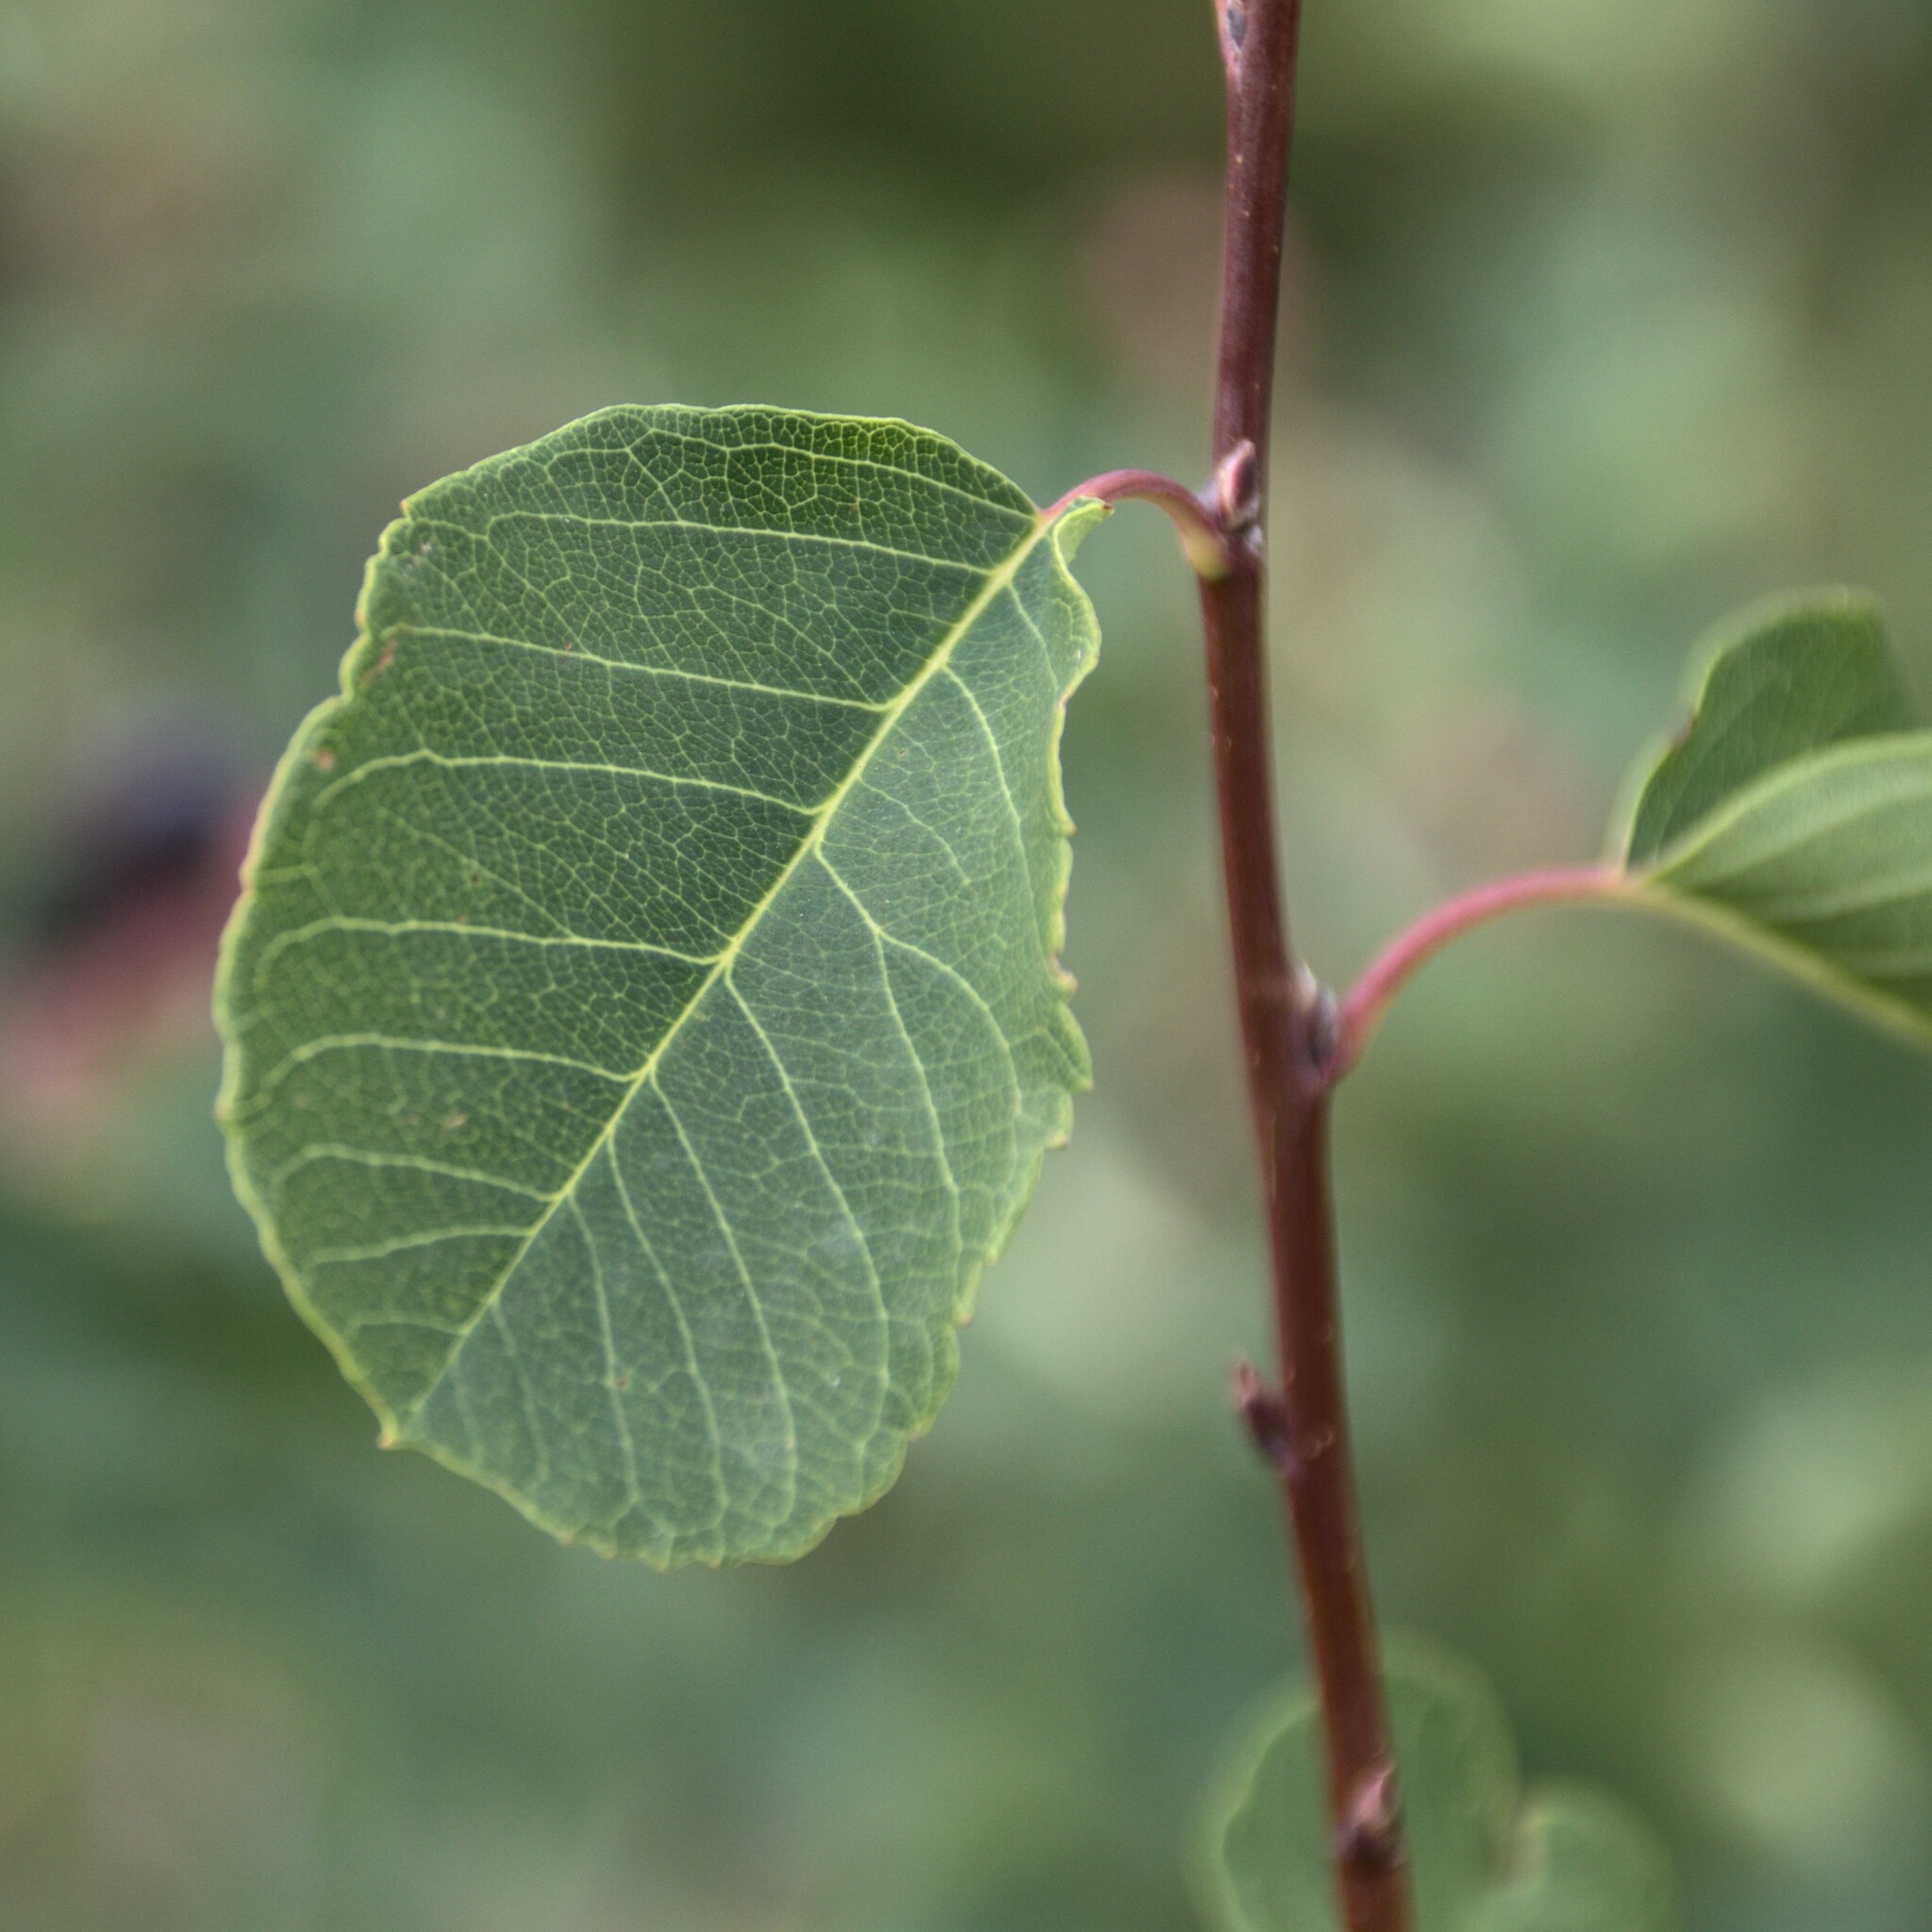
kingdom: Plantae
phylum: Tracheophyta
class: Magnoliopsida
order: Rosales
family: Rosaceae
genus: Amelanchier
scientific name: Amelanchier alnifolia
